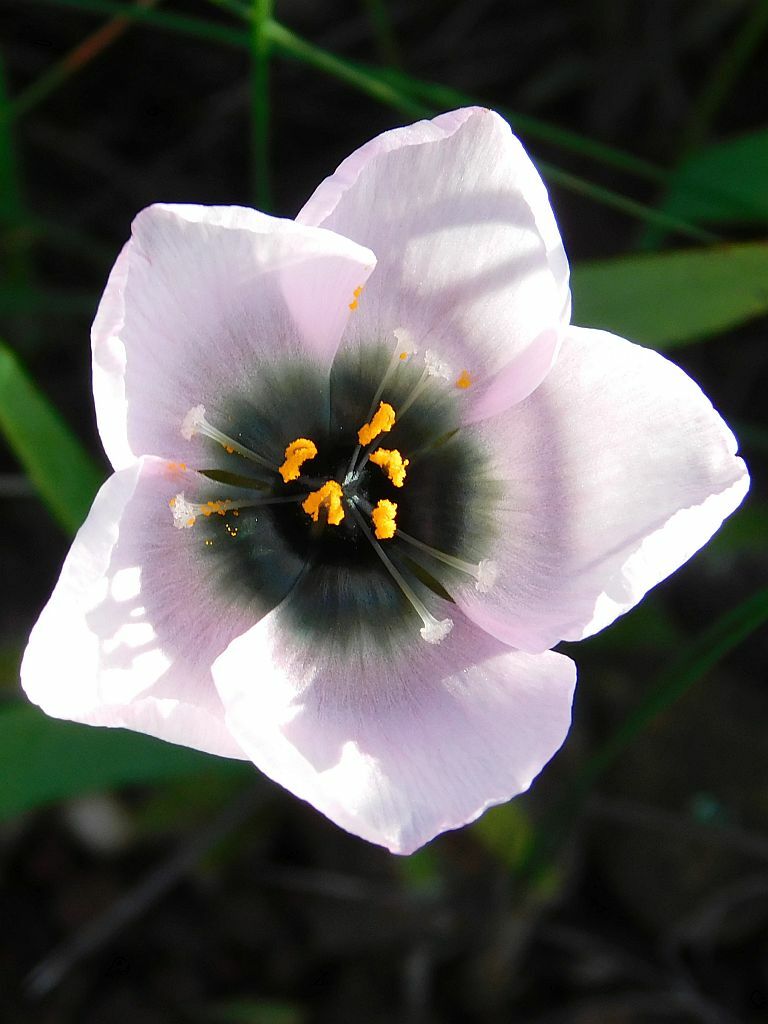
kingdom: Plantae
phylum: Tracheophyta
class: Magnoliopsida
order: Caryophyllales
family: Droseraceae
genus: Drosera
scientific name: Drosera cistiflora
